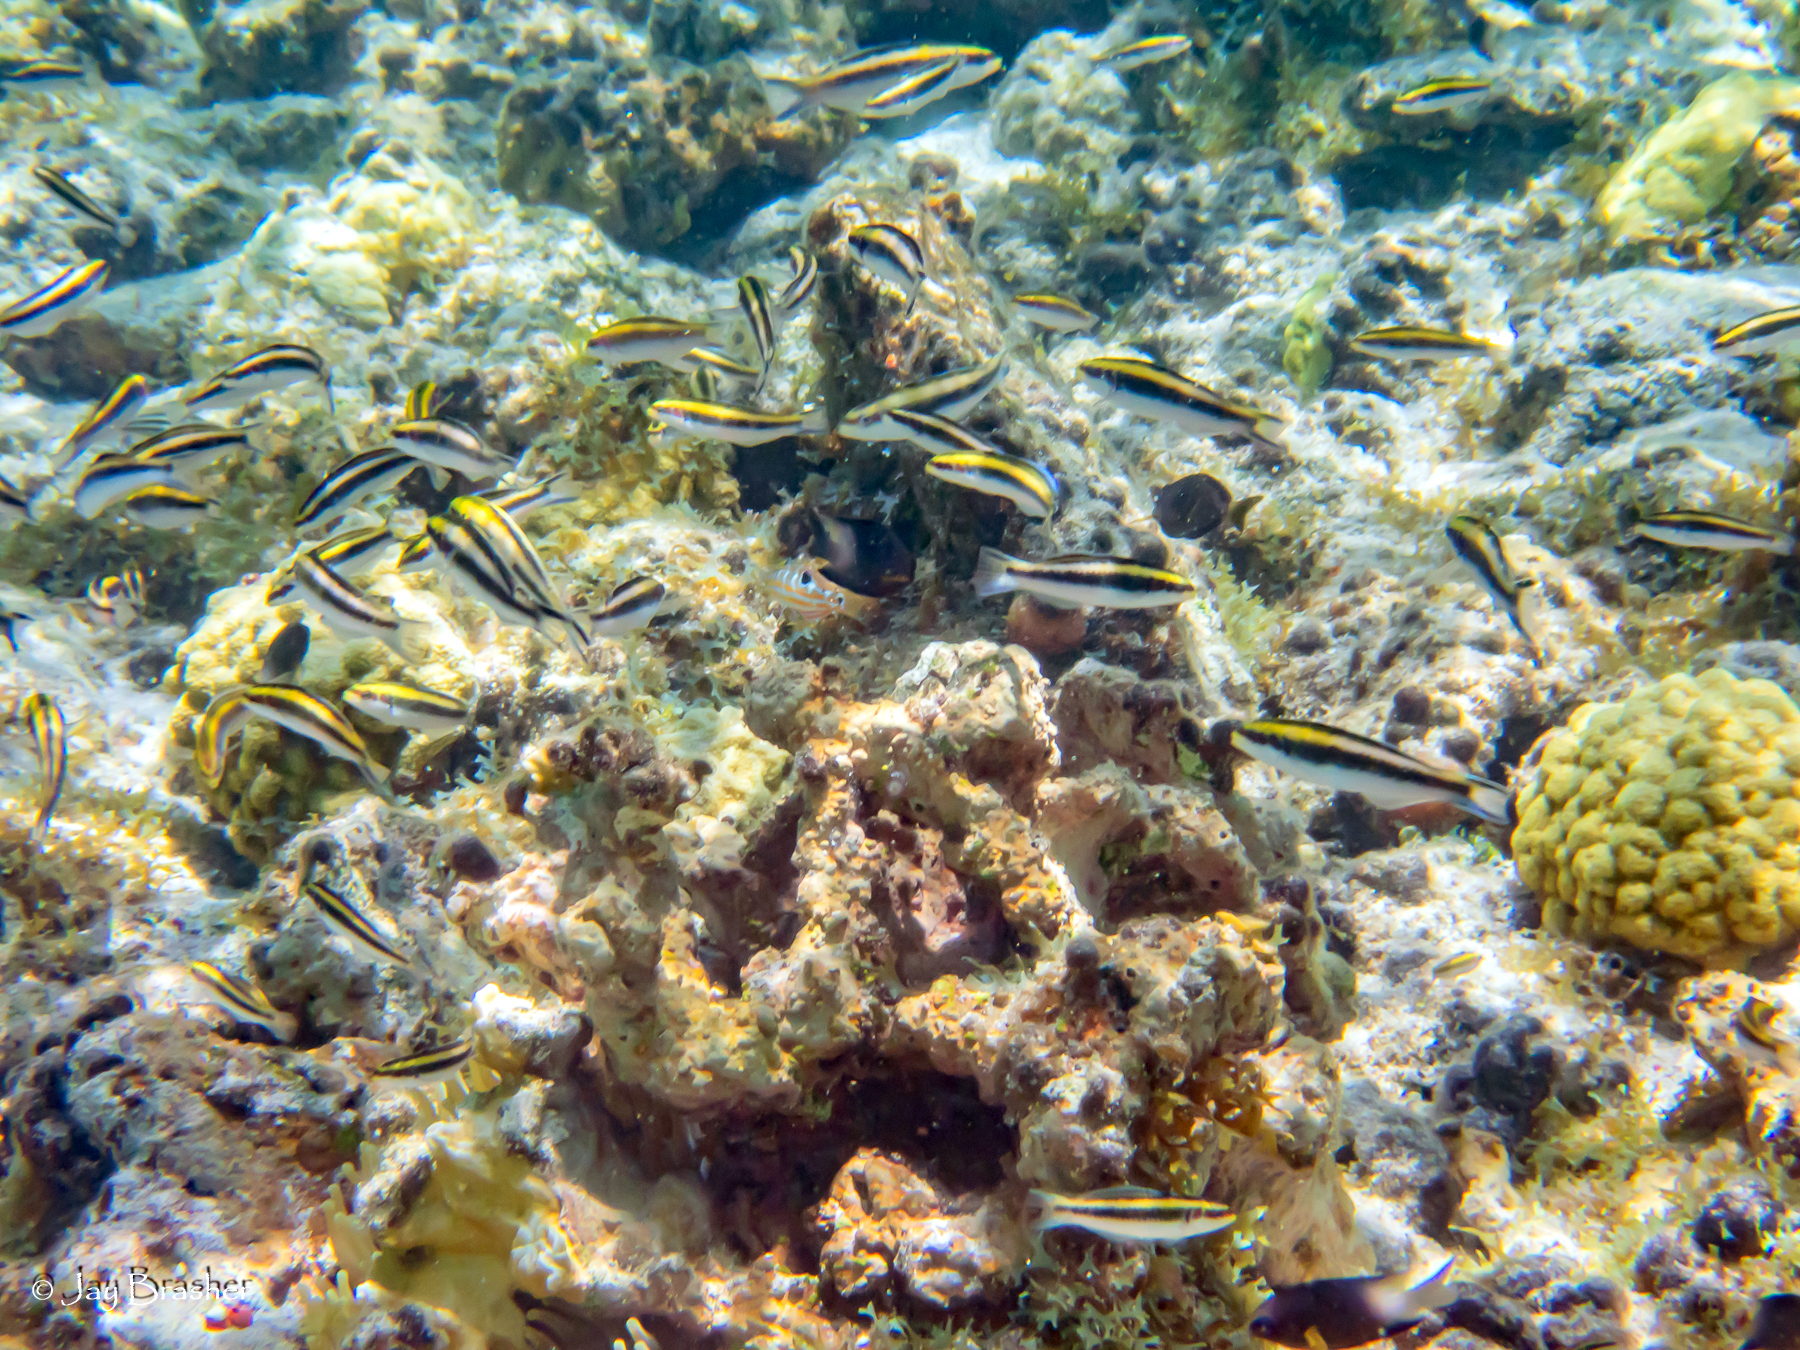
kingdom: Animalia
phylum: Chordata
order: Perciformes
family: Labridae
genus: Halichoeres
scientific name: Halichoeres radiatus
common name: Puddingwife
